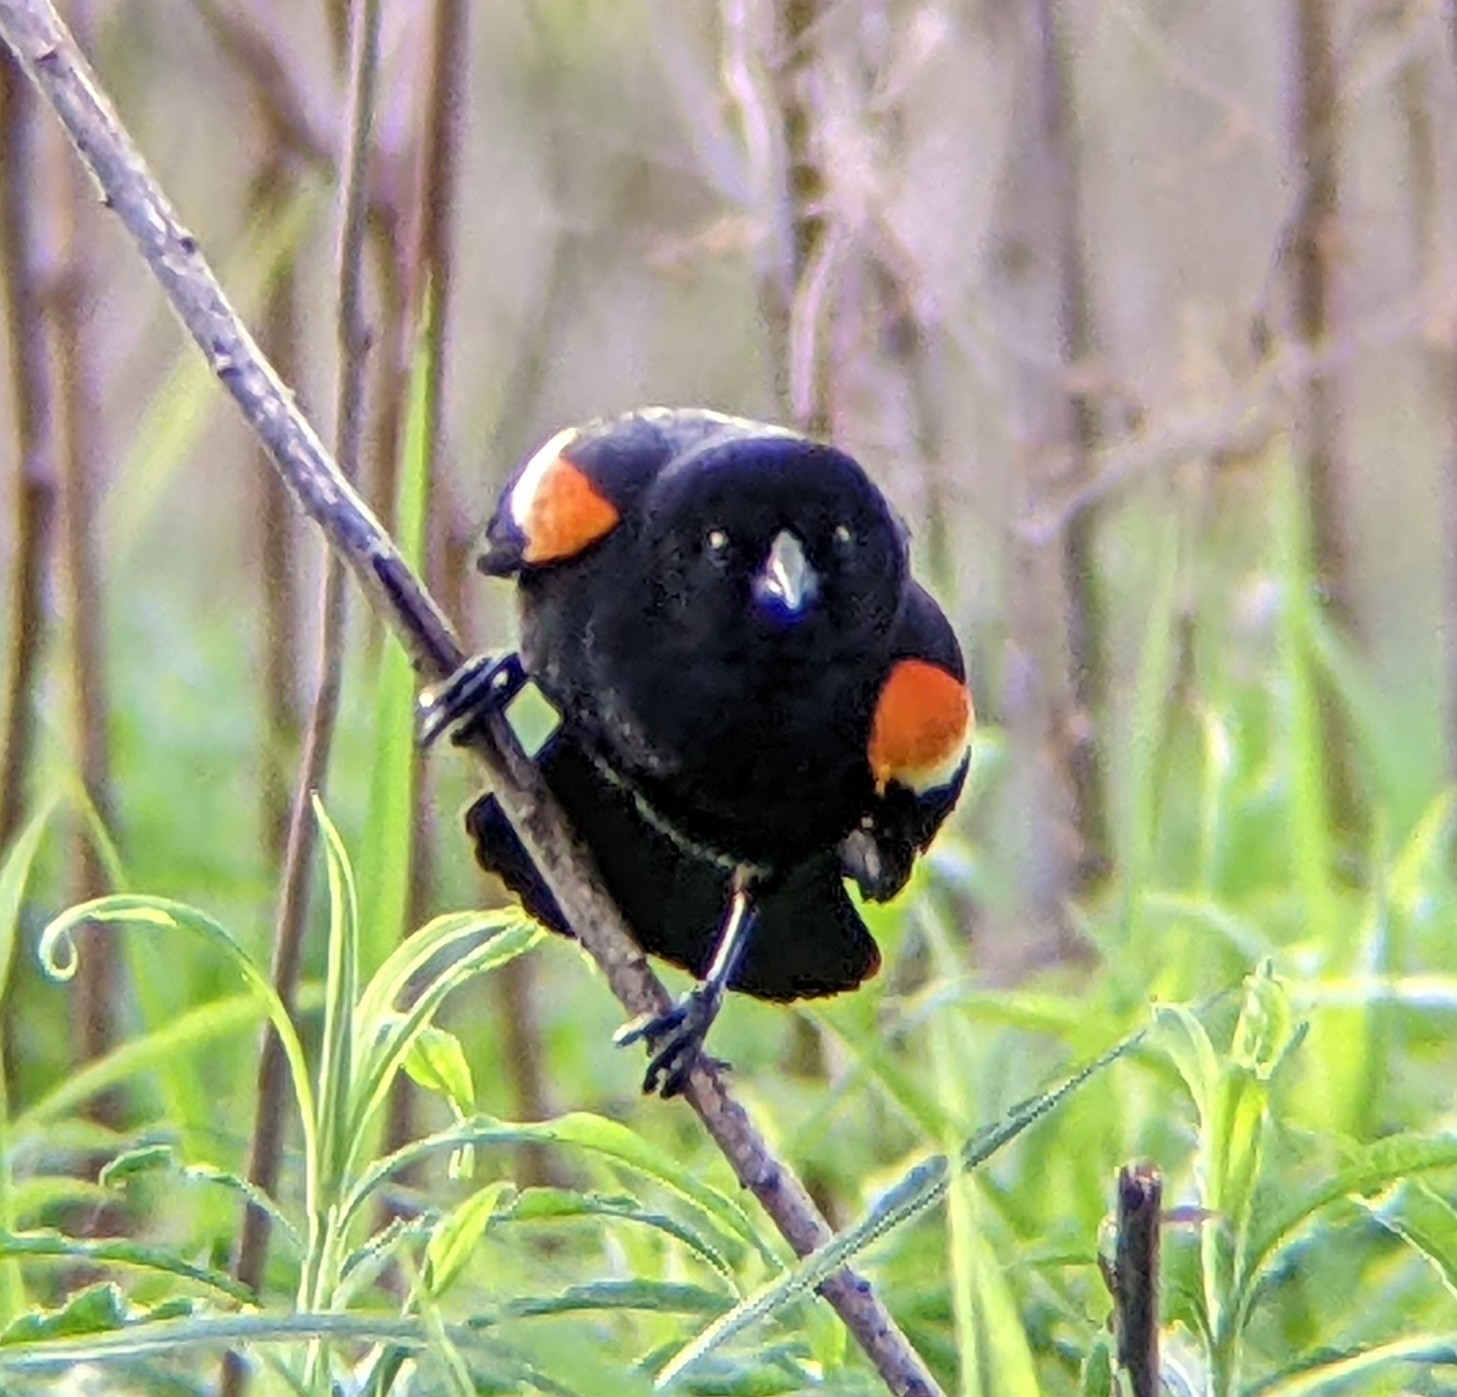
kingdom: Animalia
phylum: Chordata
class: Aves
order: Passeriformes
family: Icteridae
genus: Agelaius
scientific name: Agelaius phoeniceus
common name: Red-winged blackbird
